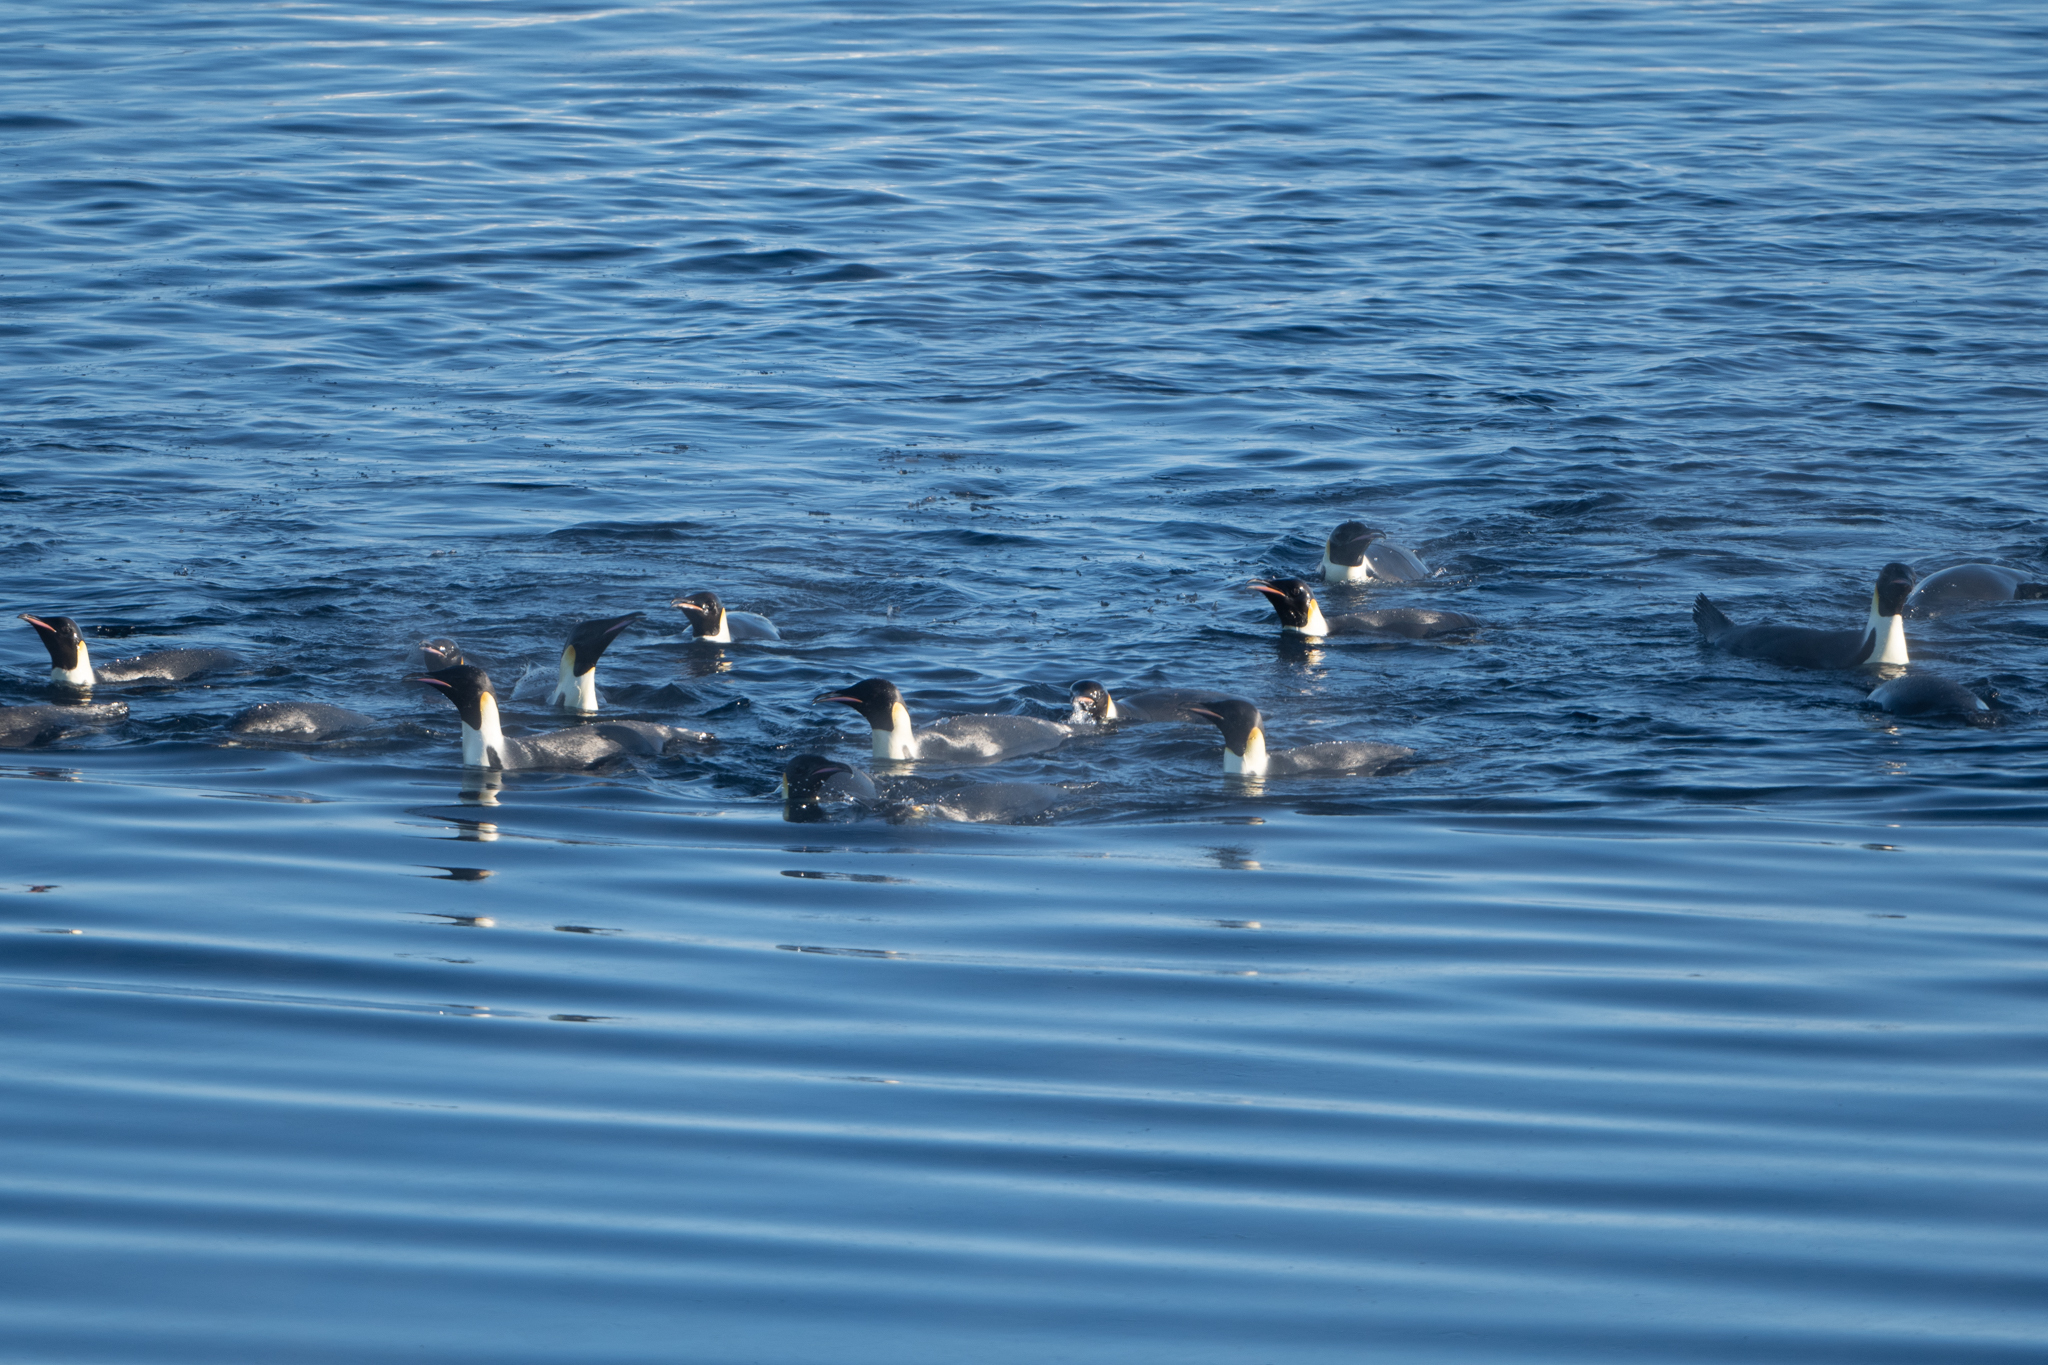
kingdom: Animalia
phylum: Chordata
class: Aves
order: Sphenisciformes
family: Spheniscidae
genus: Aptenodytes
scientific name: Aptenodytes forsteri
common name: Emperor penguin
